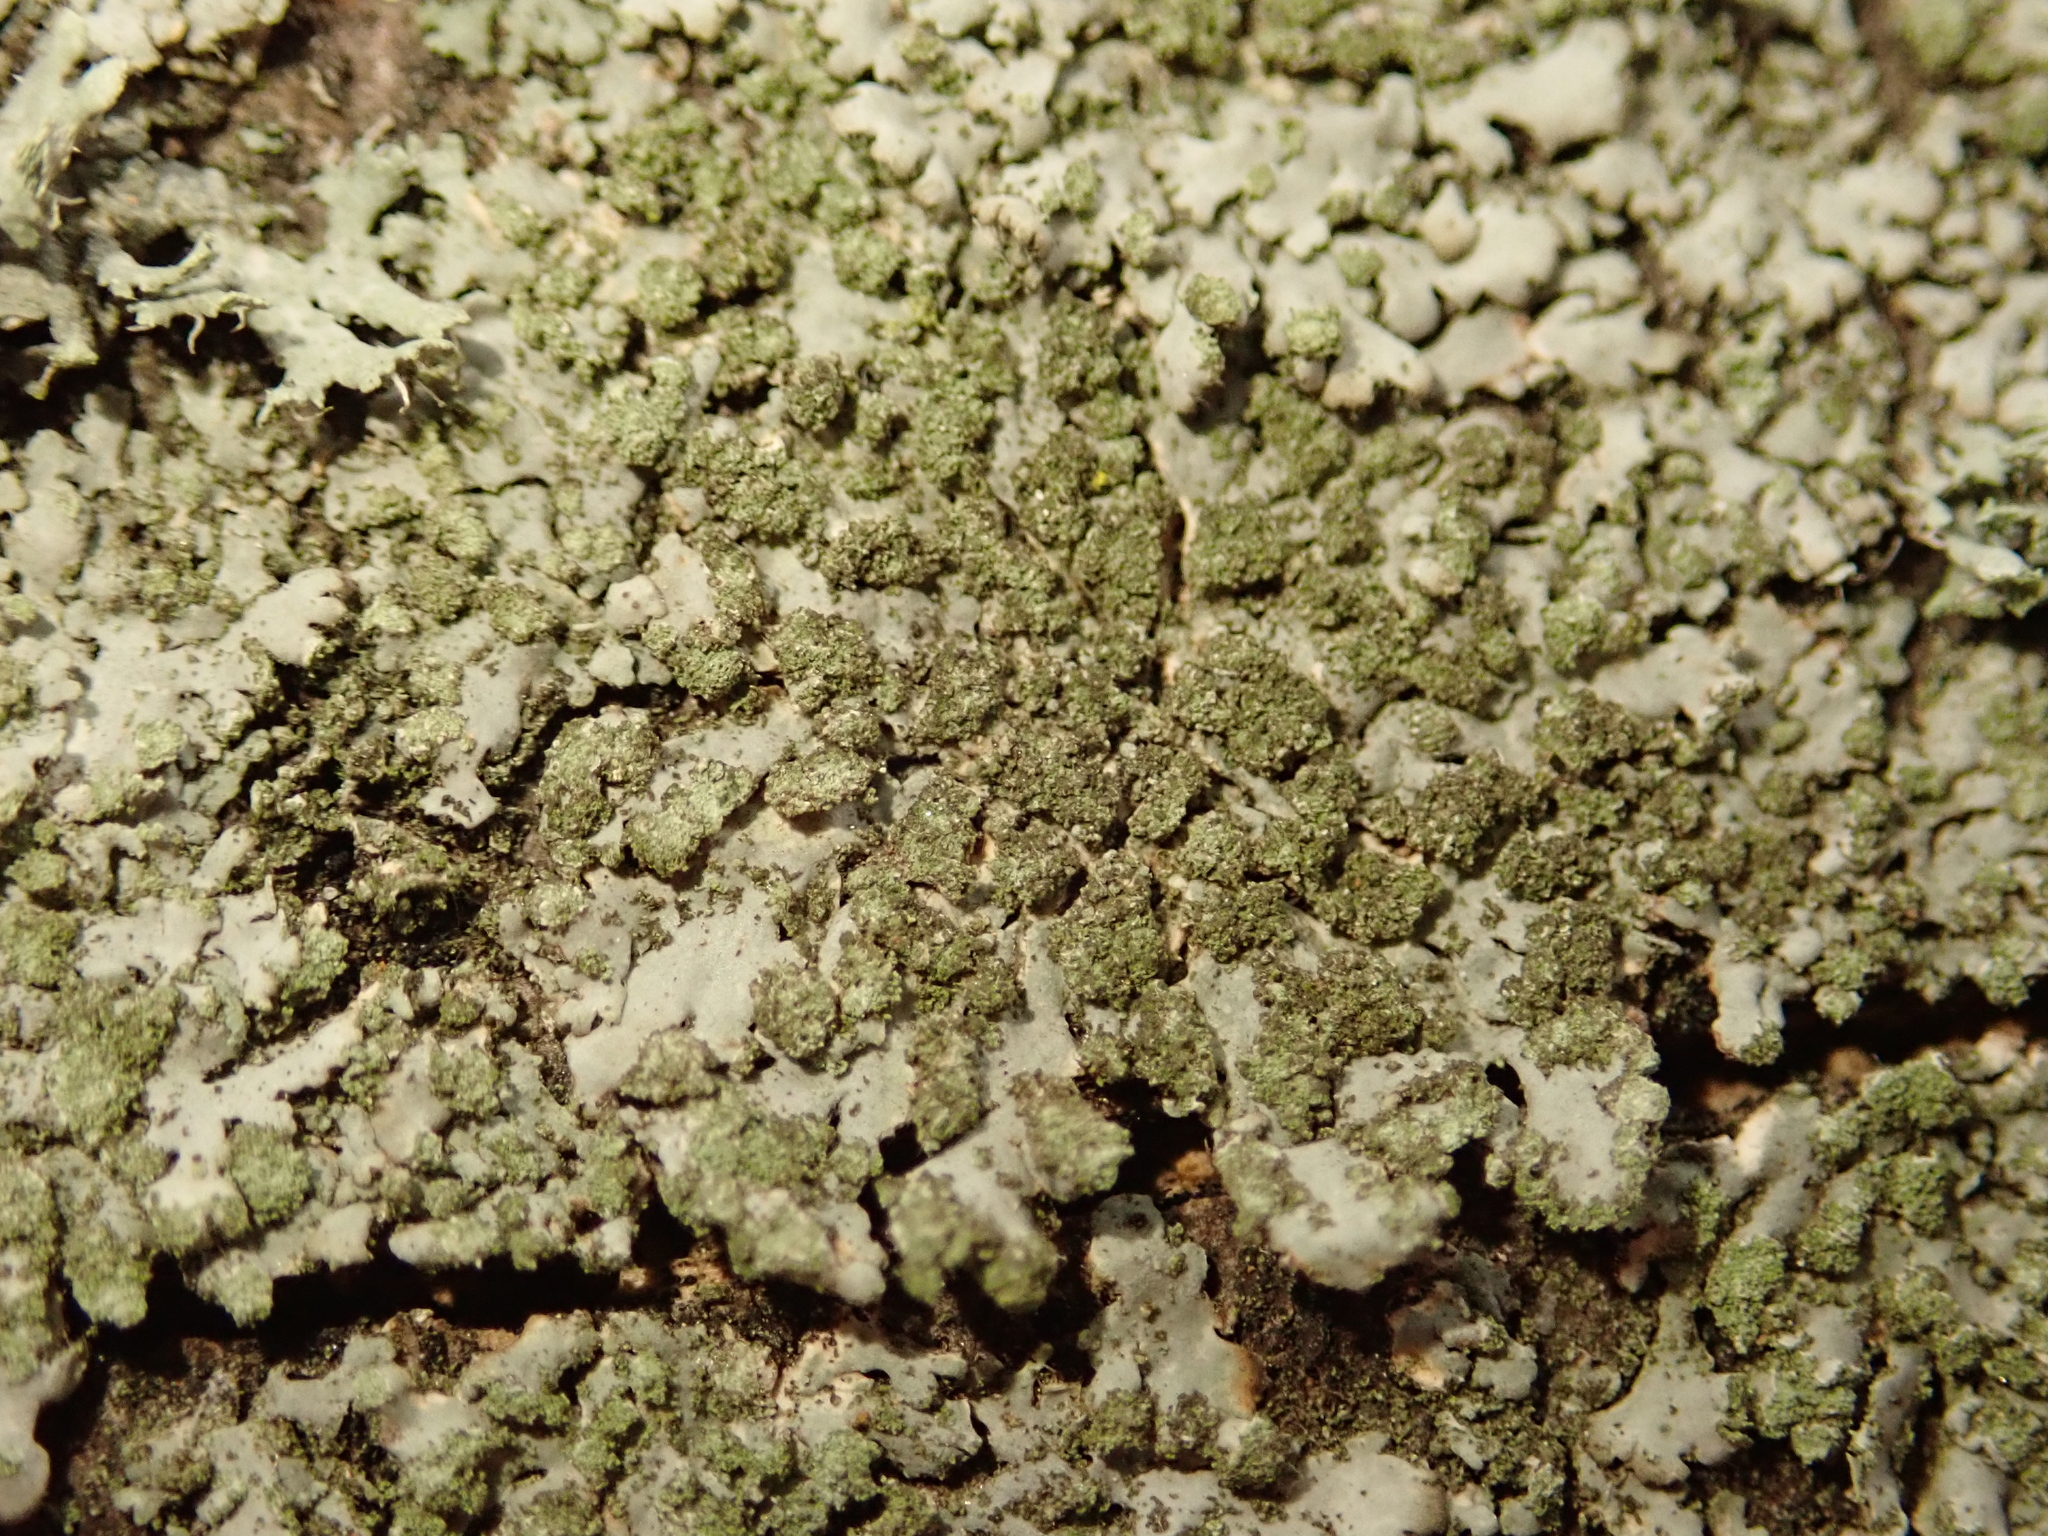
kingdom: Fungi
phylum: Ascomycota
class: Lecanoromycetes
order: Caliciales
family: Physciaceae
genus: Phaeophyscia
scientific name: Phaeophyscia orbicularis
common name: Mealy shadow lichen
